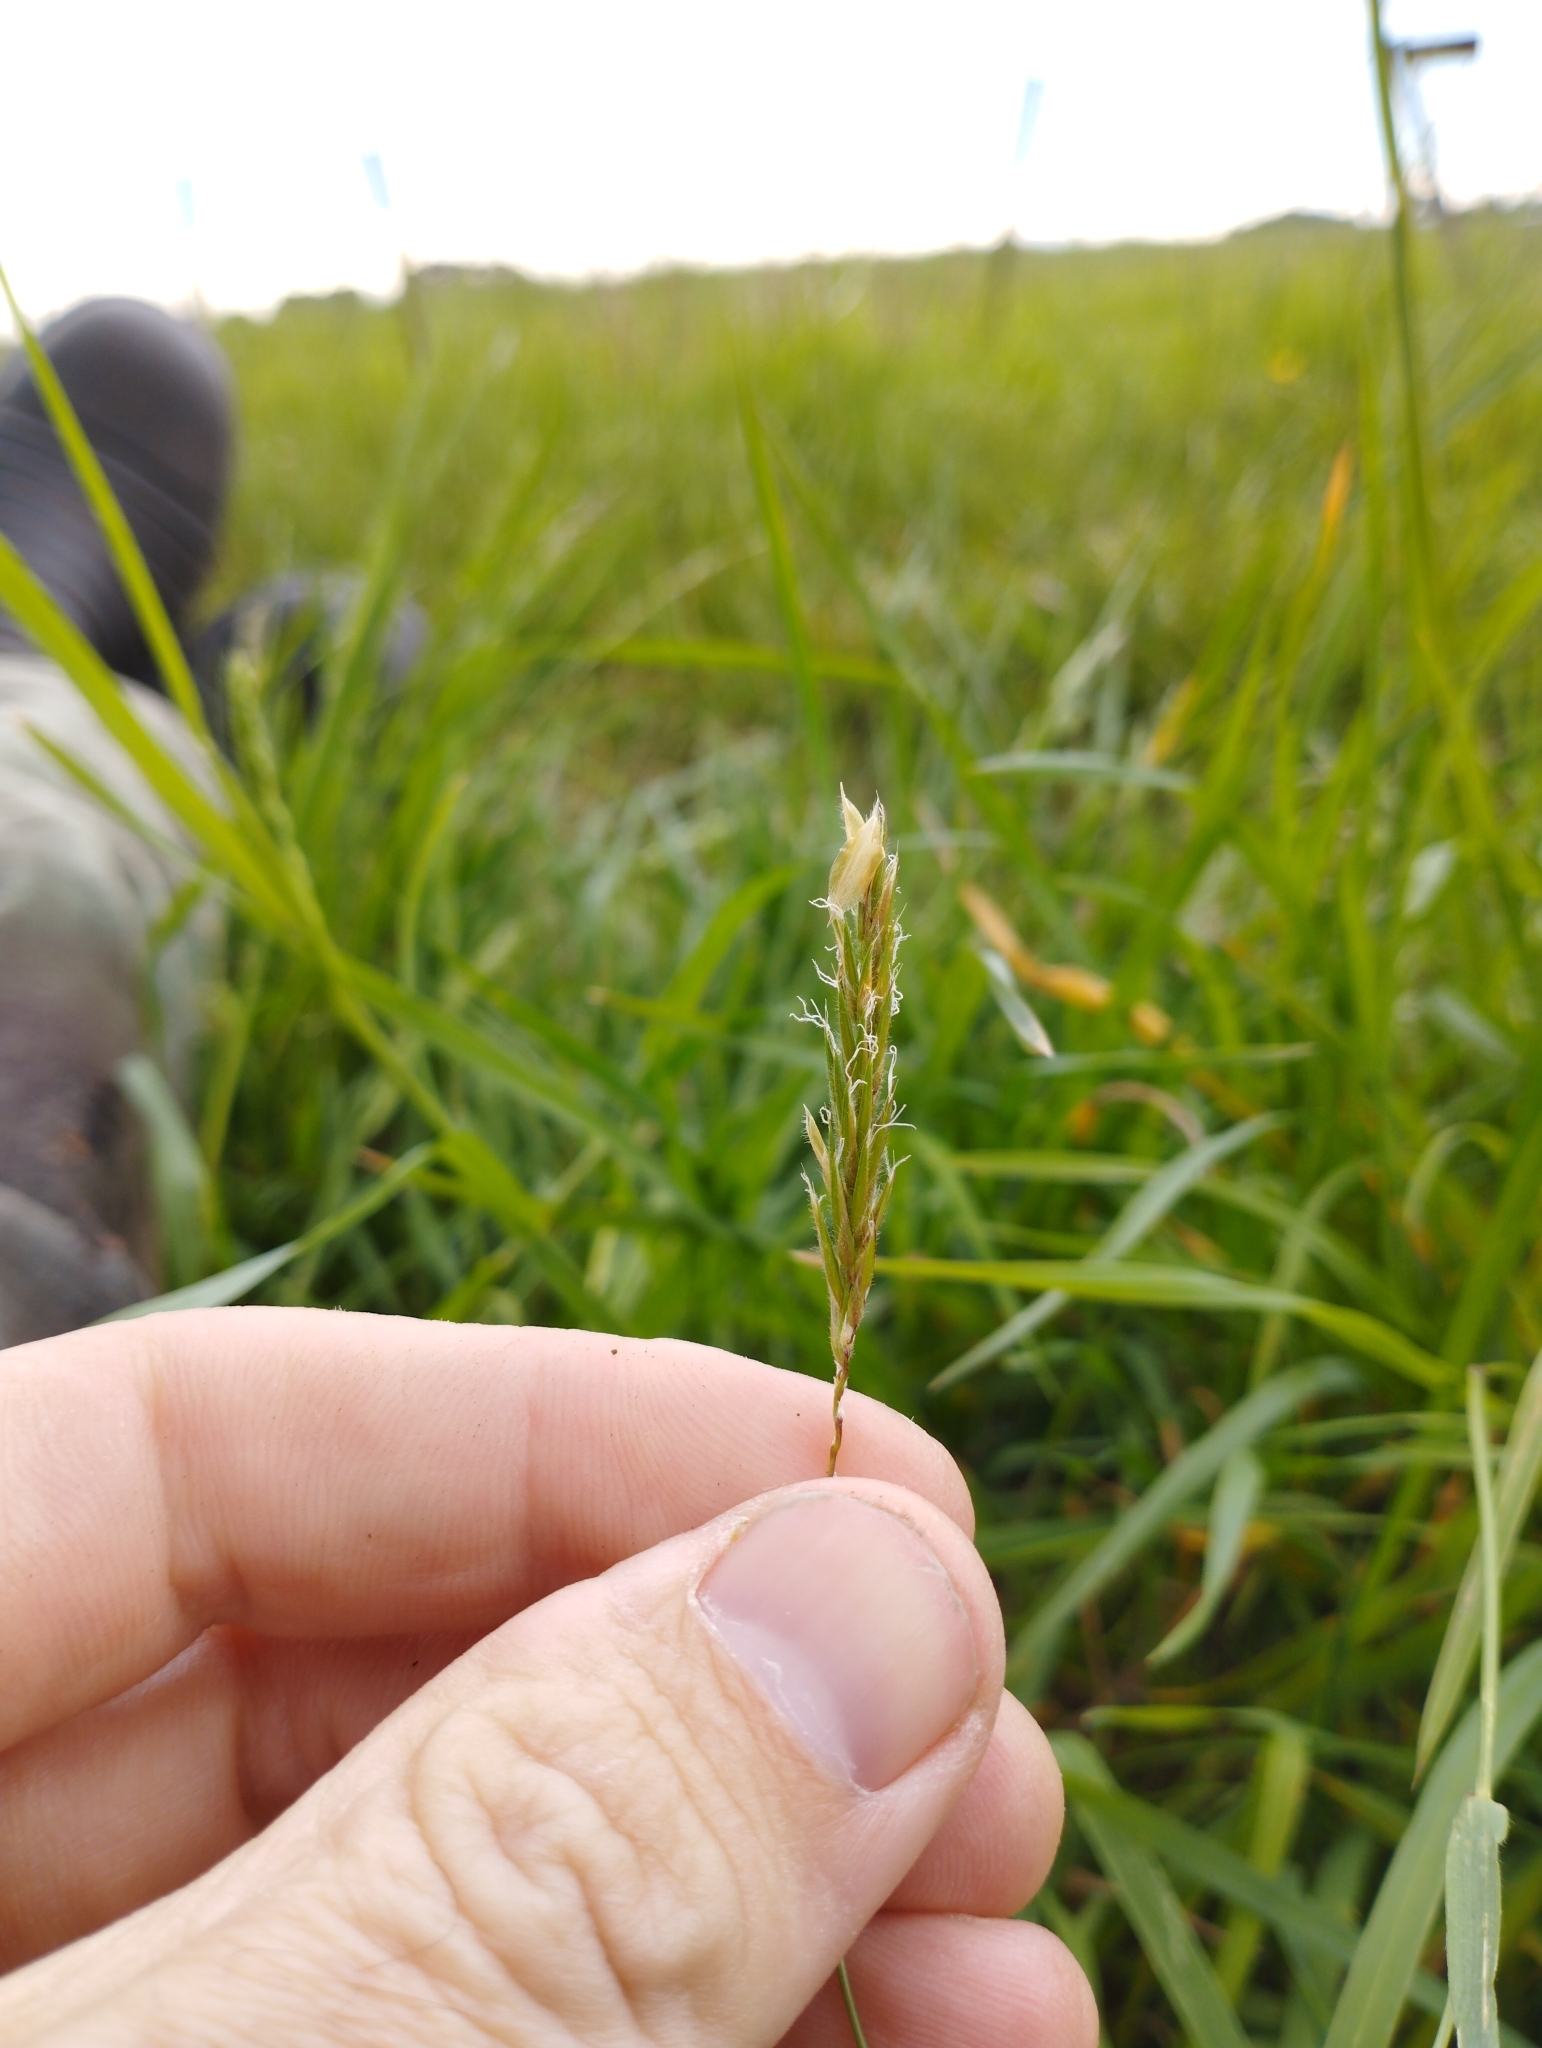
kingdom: Plantae
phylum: Tracheophyta
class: Liliopsida
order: Poales
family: Poaceae
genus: Anthoxanthum
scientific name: Anthoxanthum odoratum
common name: Sweet vernalgrass
